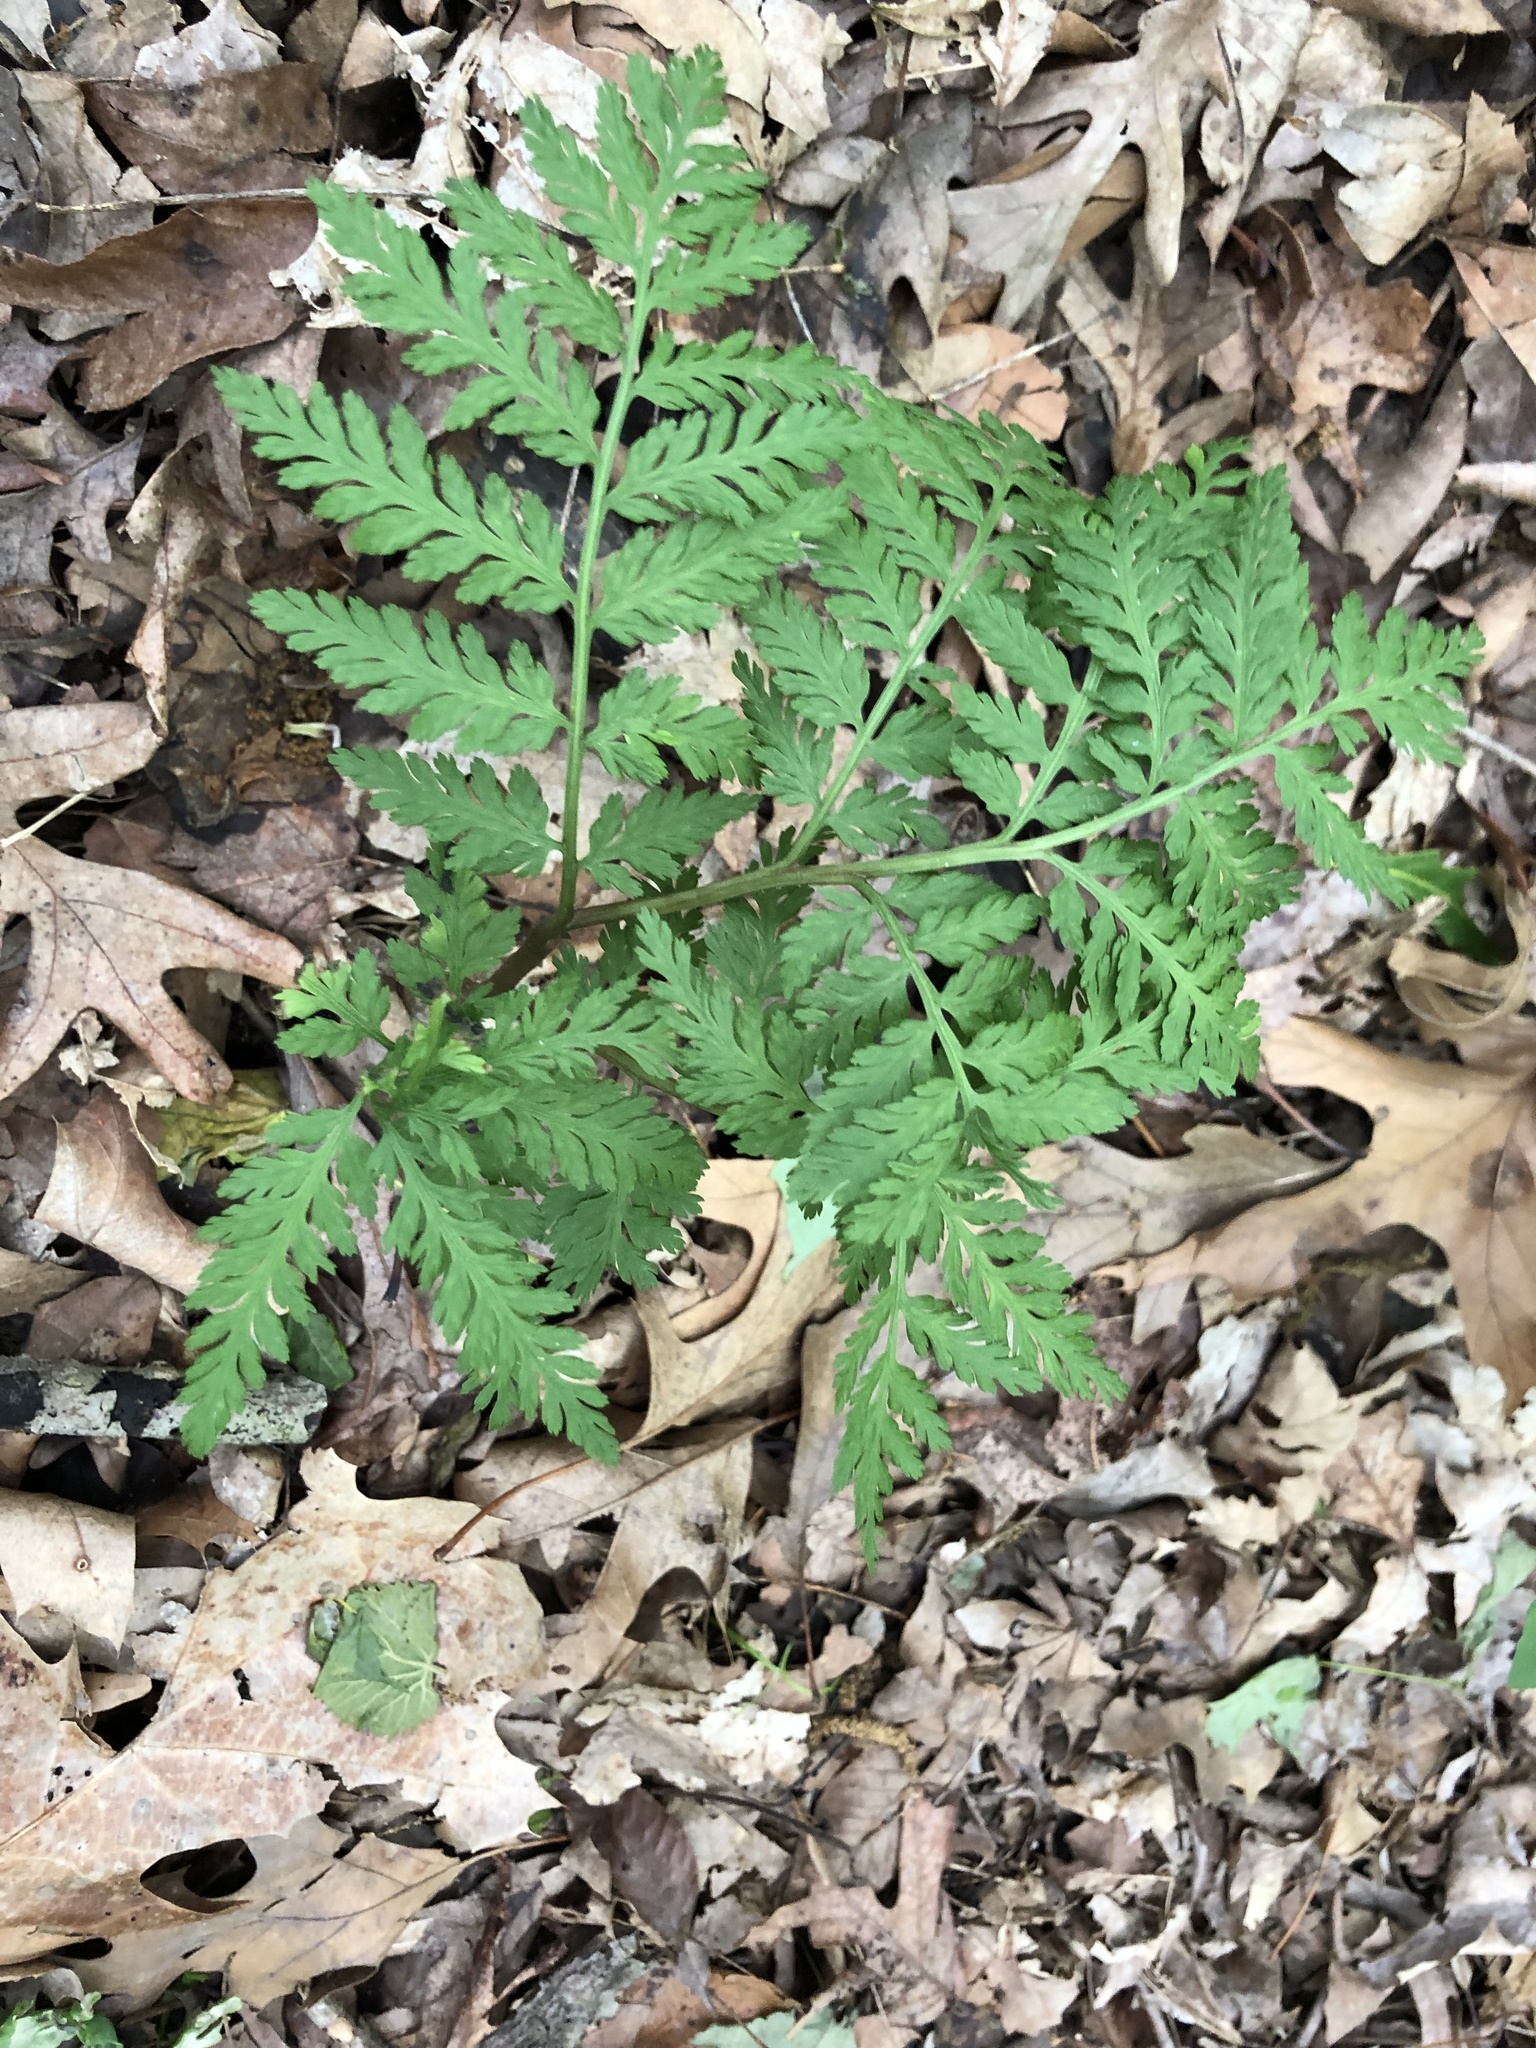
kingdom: Plantae
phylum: Tracheophyta
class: Polypodiopsida
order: Ophioglossales
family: Ophioglossaceae
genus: Botrypus
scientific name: Botrypus virginianus
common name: Common grapefern
